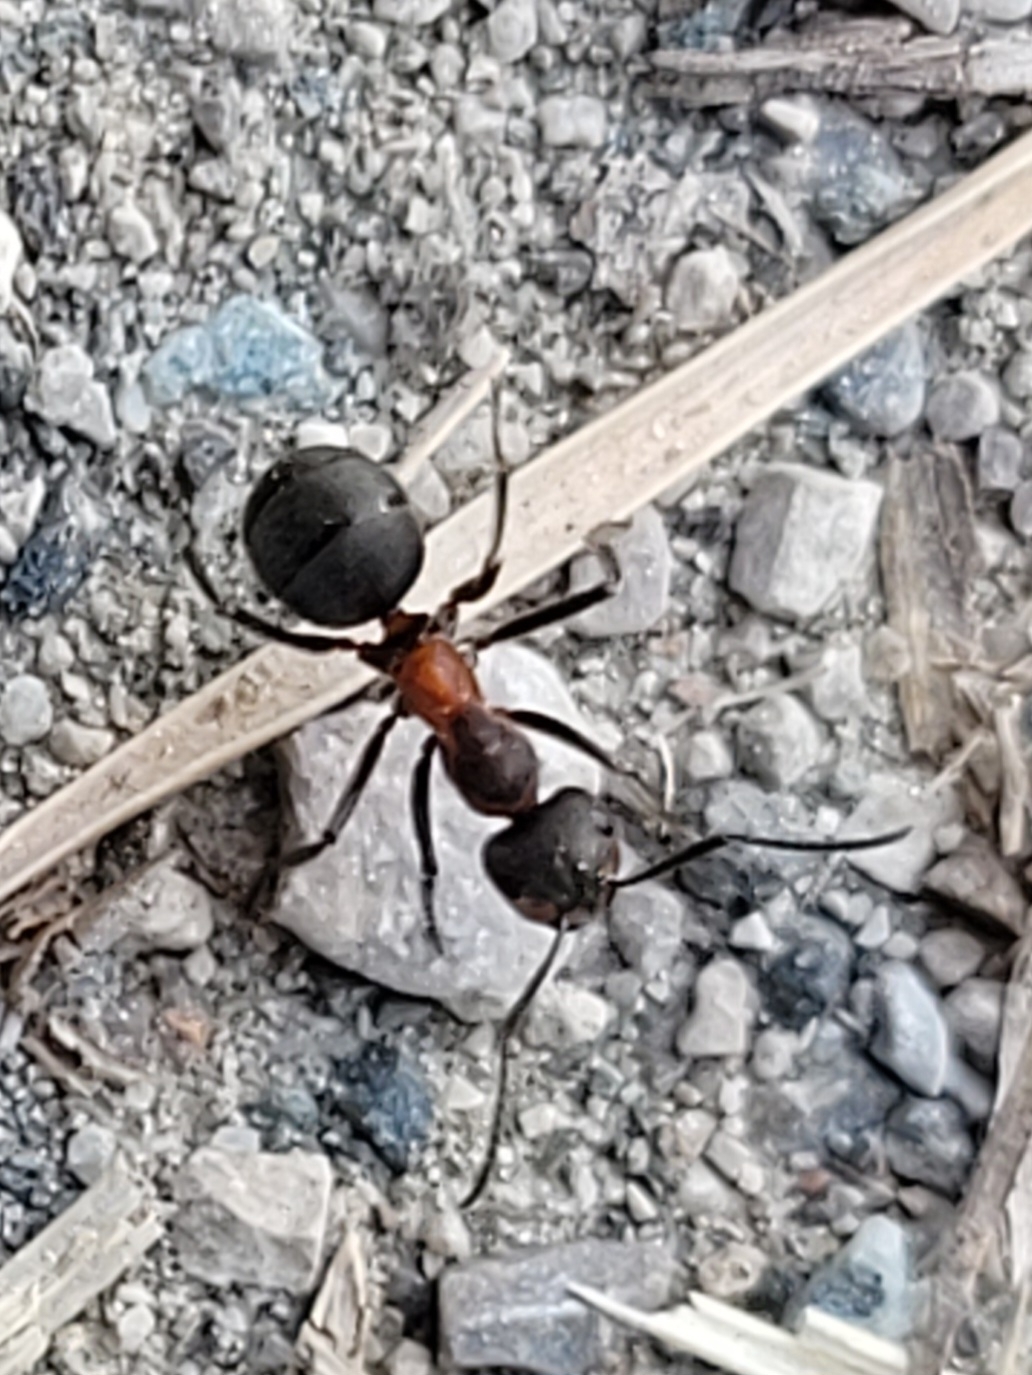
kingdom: Animalia
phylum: Arthropoda
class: Insecta
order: Hymenoptera
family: Formicidae
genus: Formica
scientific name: Formica
